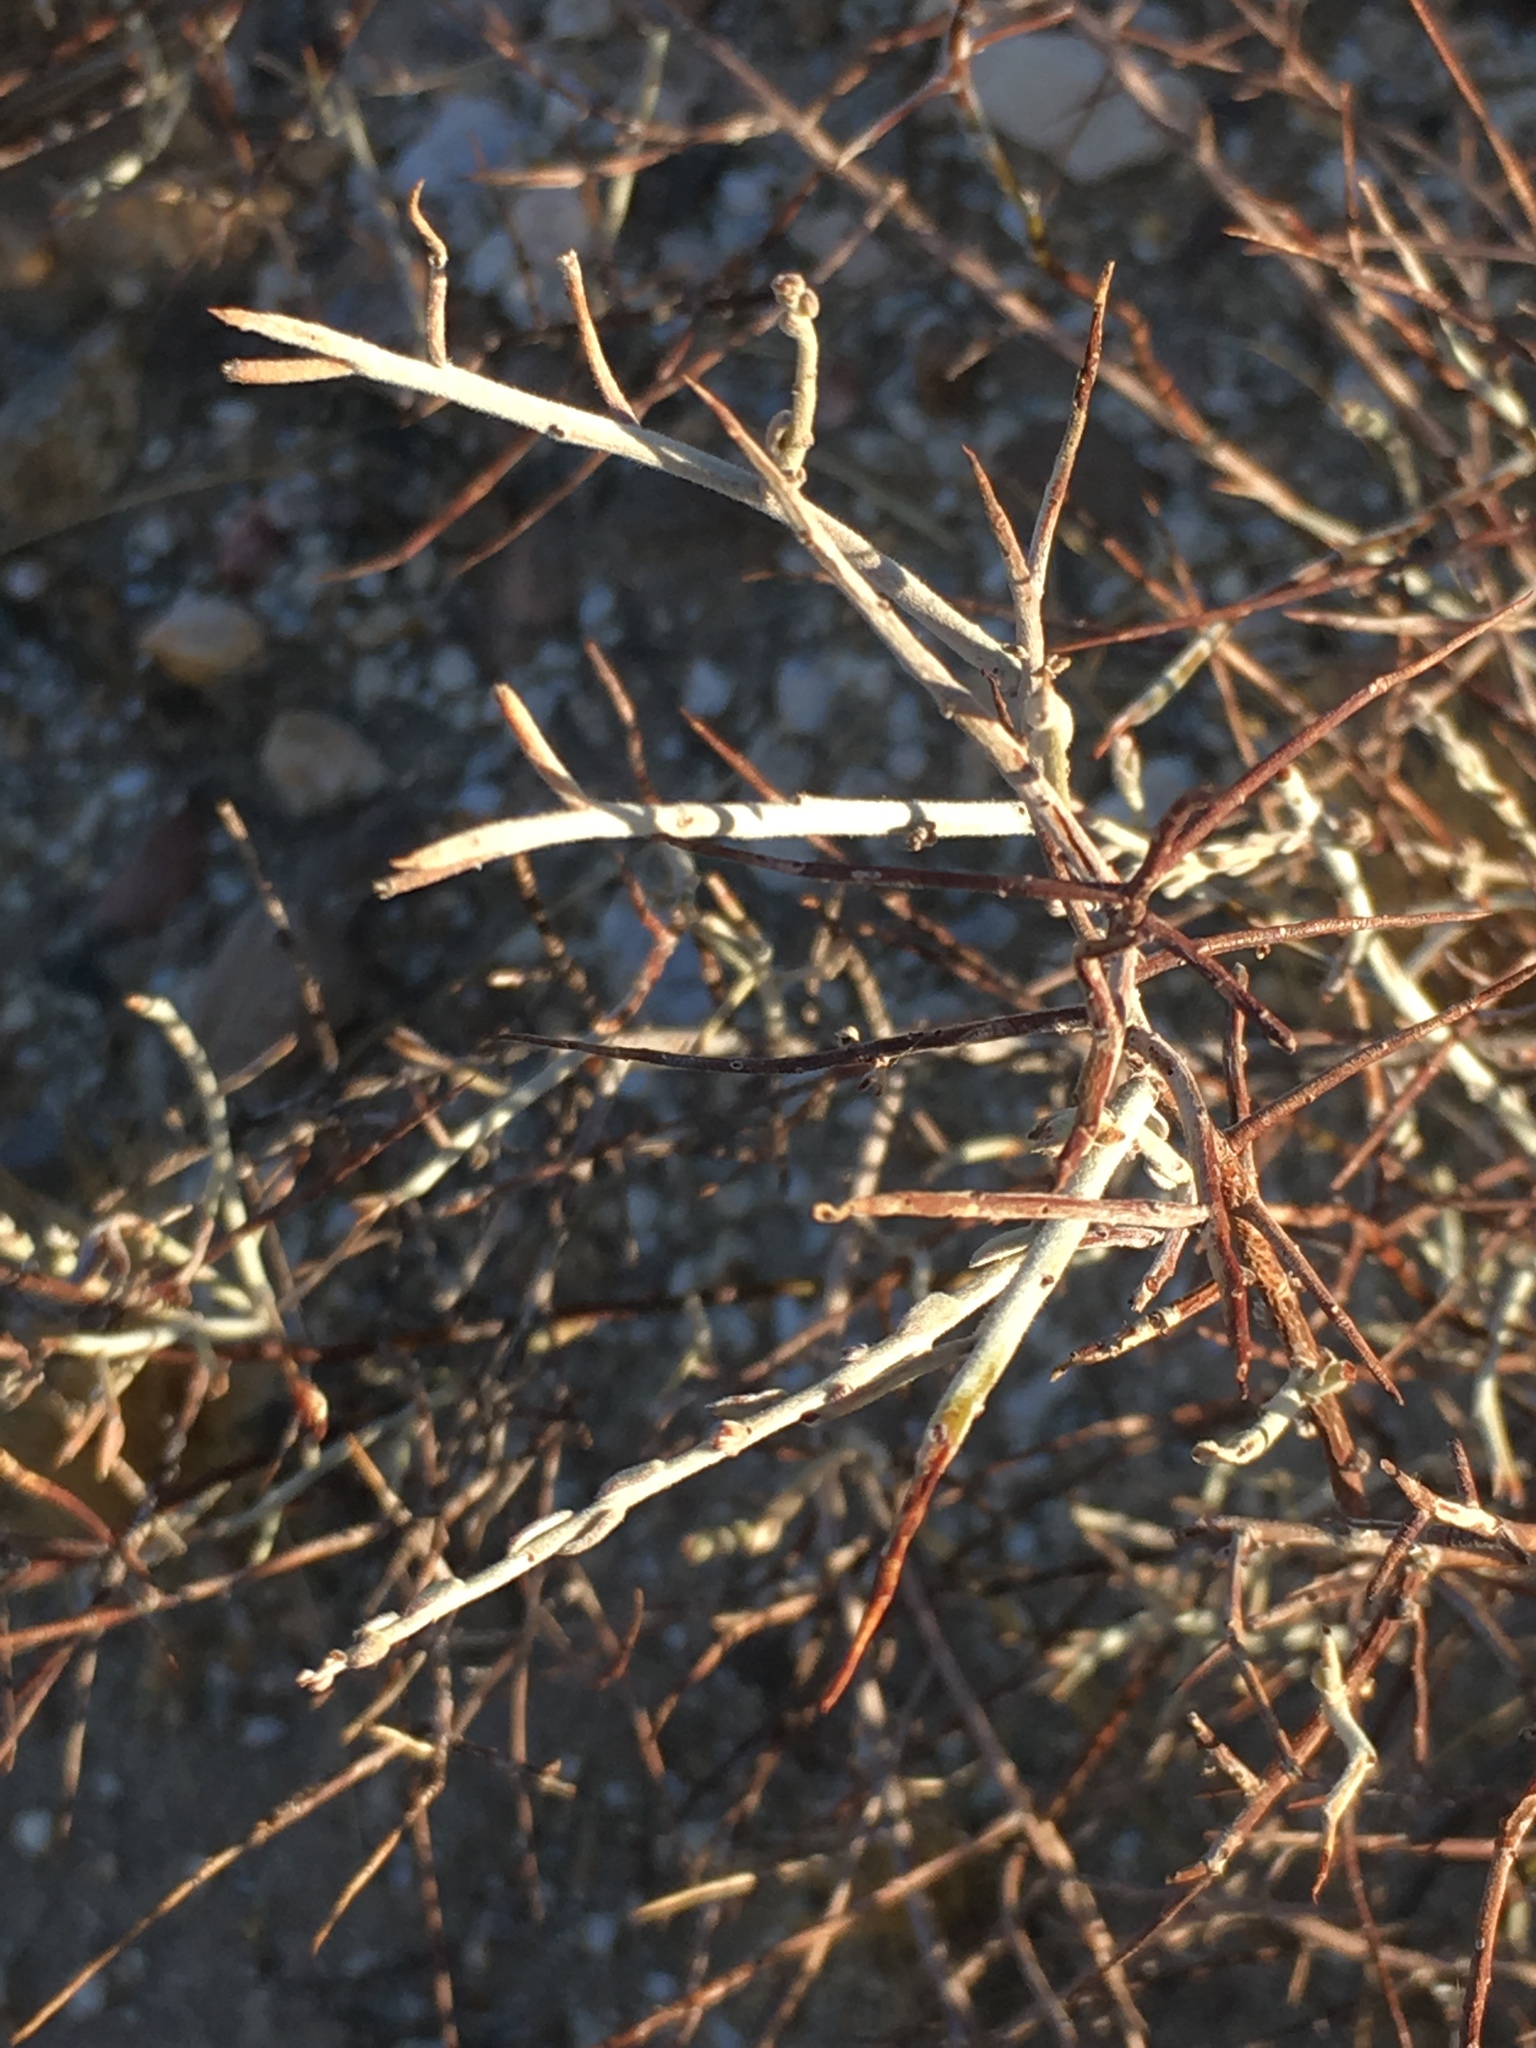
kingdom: Plantae
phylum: Tracheophyta
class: Magnoliopsida
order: Zygophyllales
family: Krameriaceae
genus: Krameria
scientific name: Krameria bicolor
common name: White ratany
